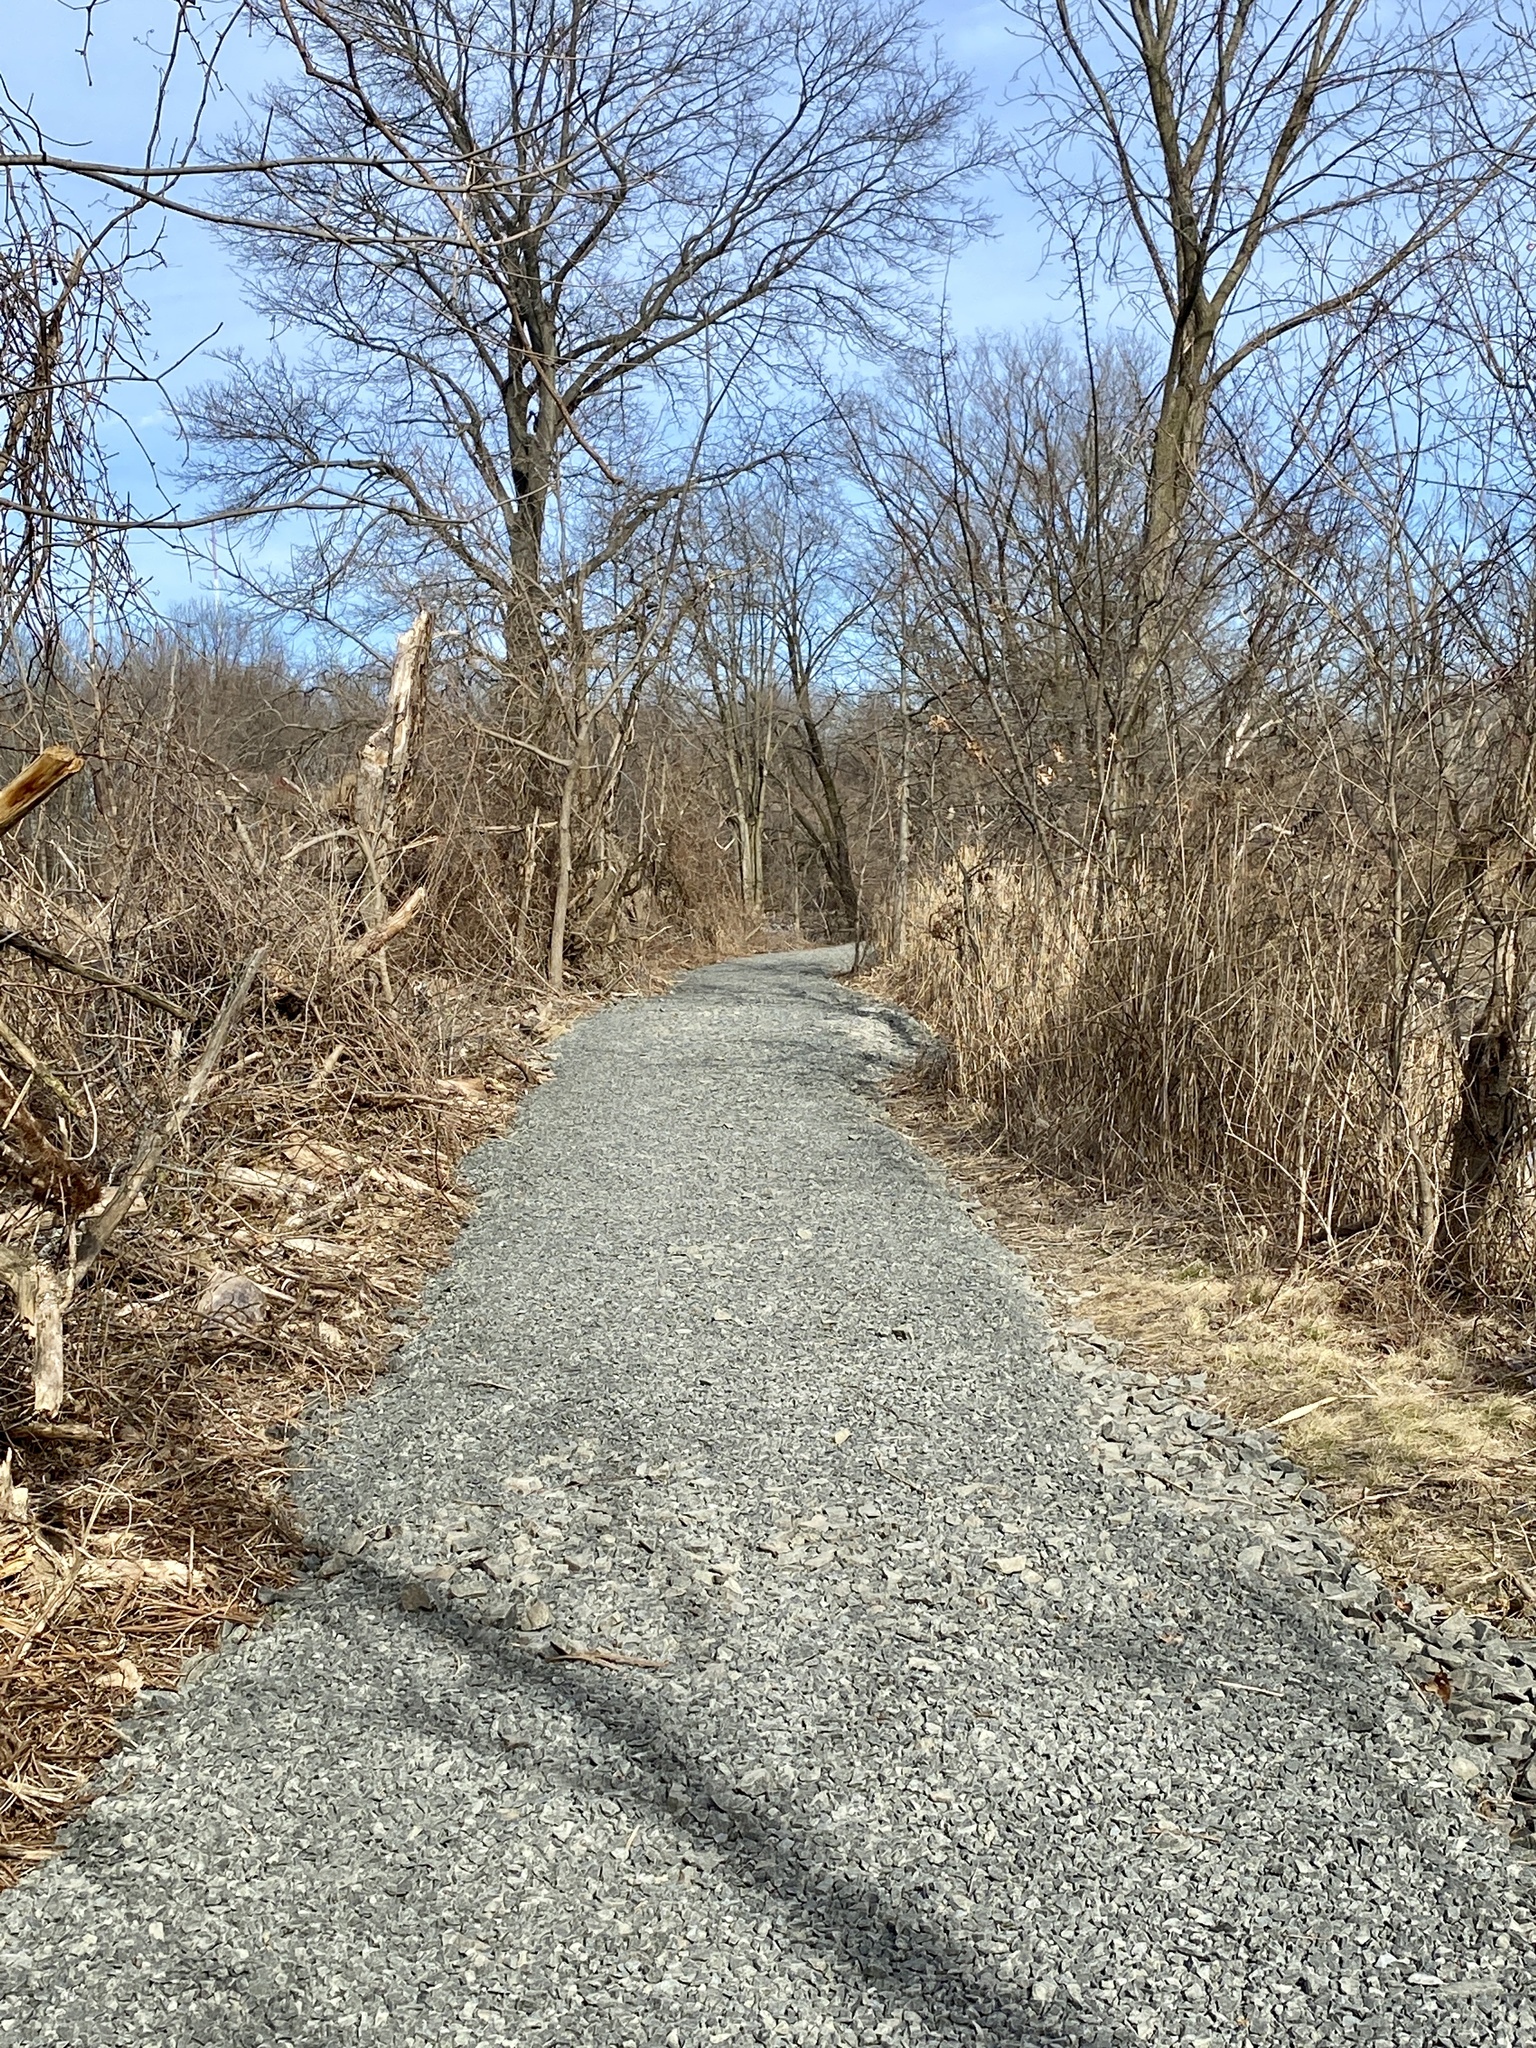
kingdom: Plantae
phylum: Tracheophyta
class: Magnoliopsida
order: Rosales
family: Rosaceae
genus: Geum
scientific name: Geum canadense
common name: White avens
